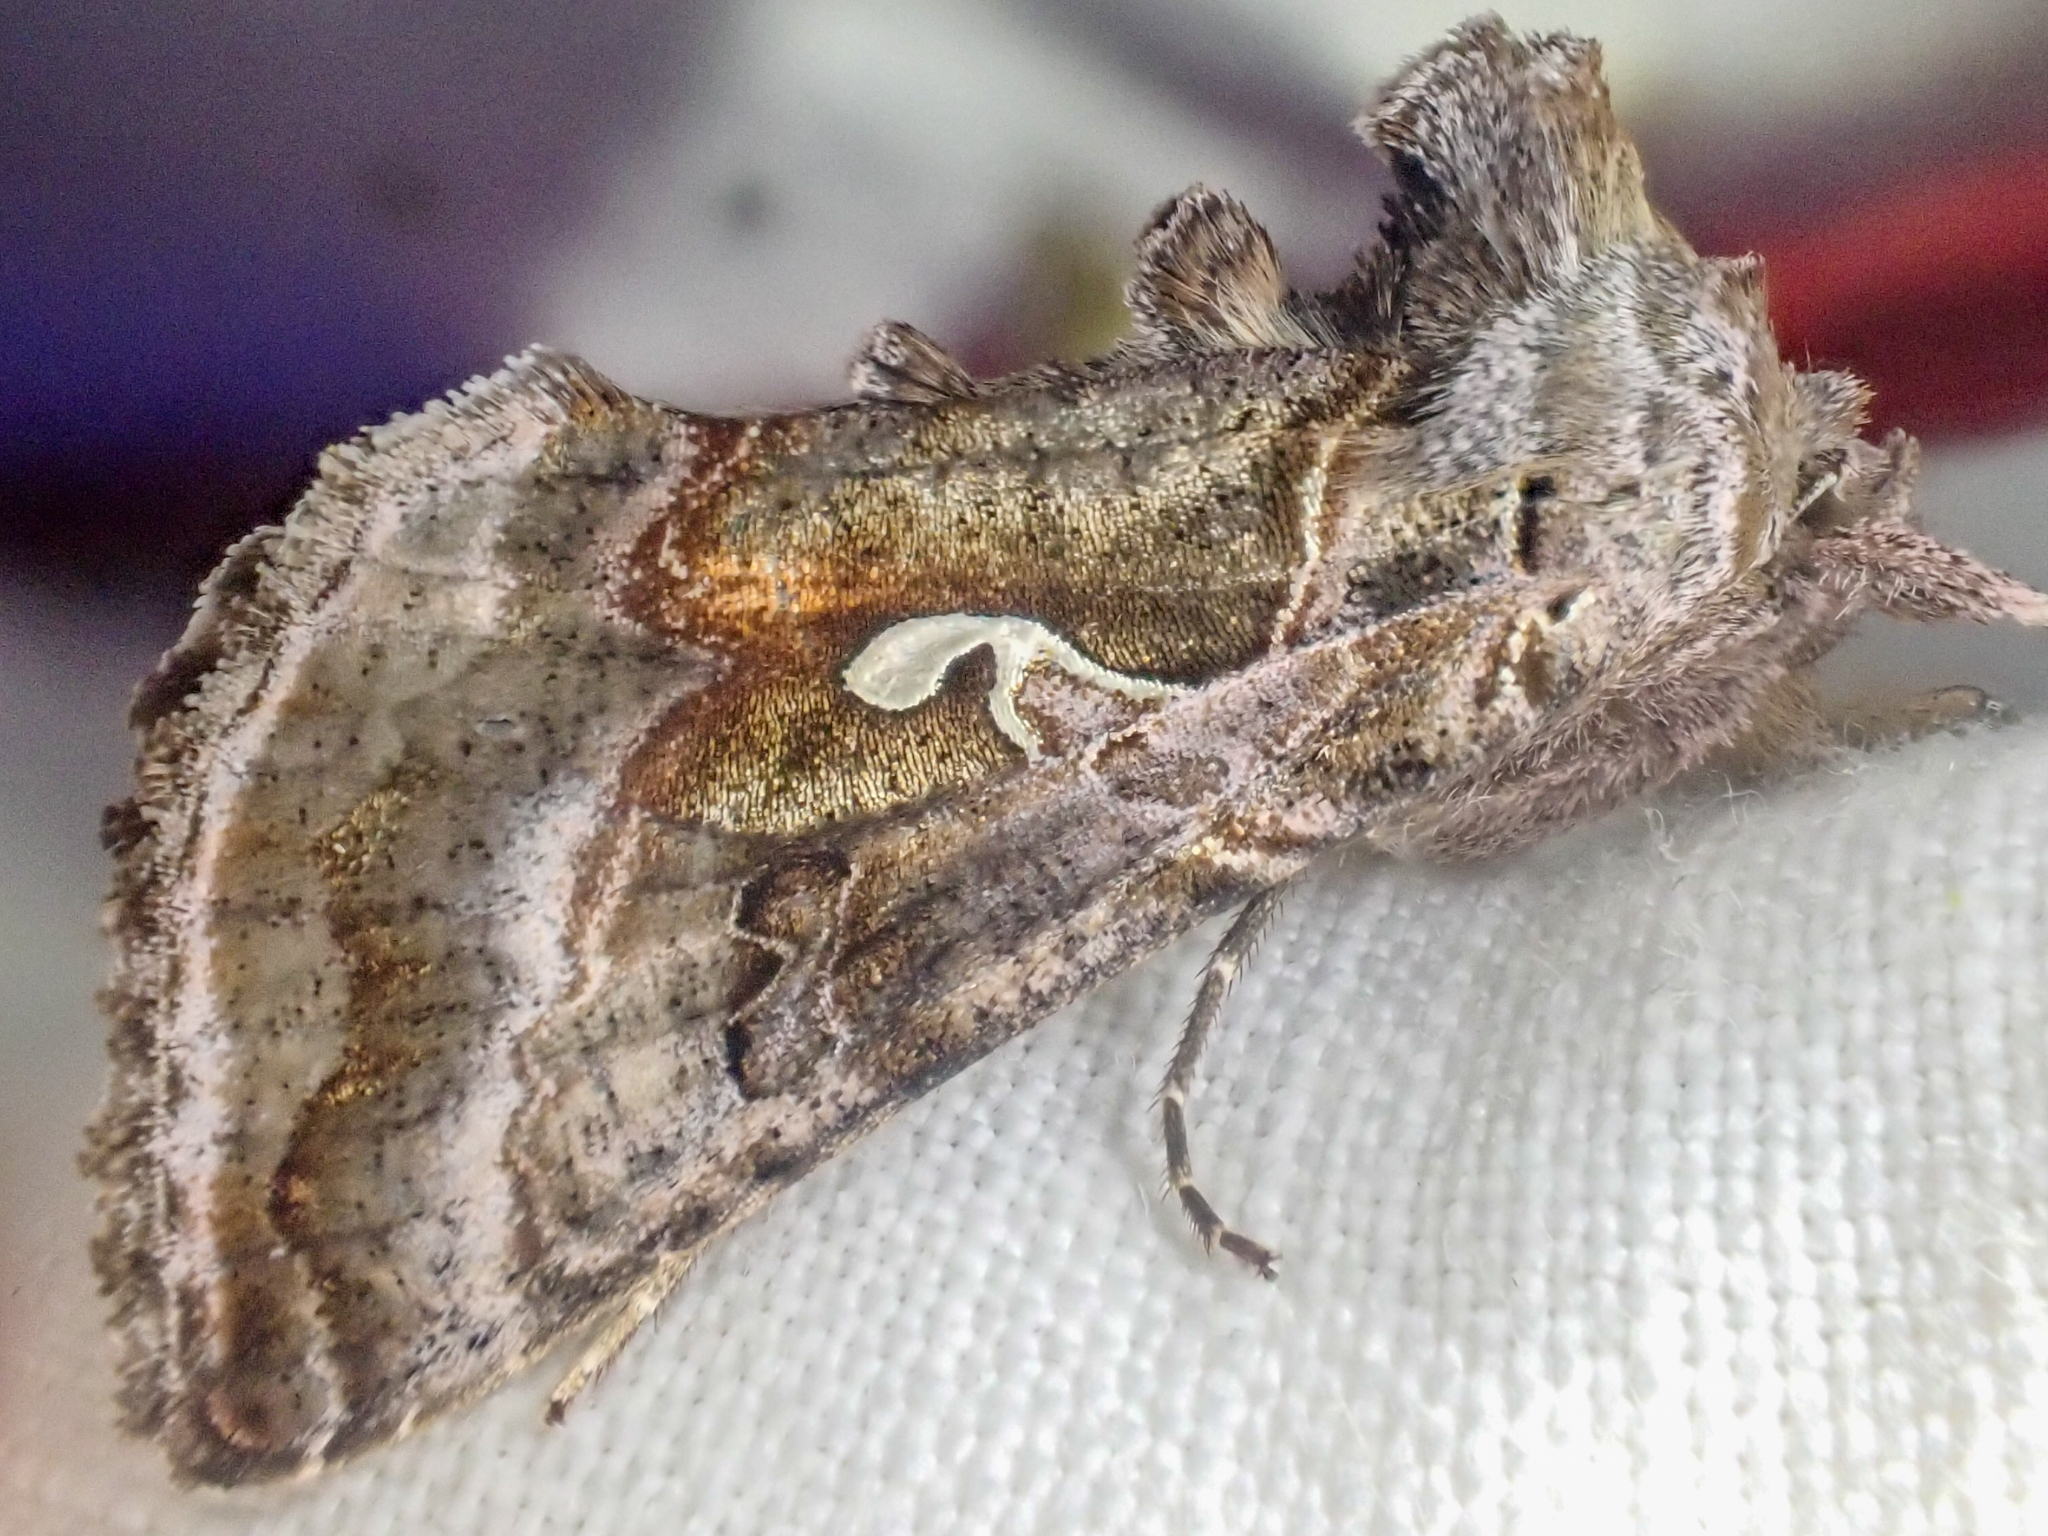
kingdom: Animalia
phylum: Arthropoda
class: Insecta
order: Lepidoptera
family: Noctuidae
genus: Autographa
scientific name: Autographa pseudogamma
